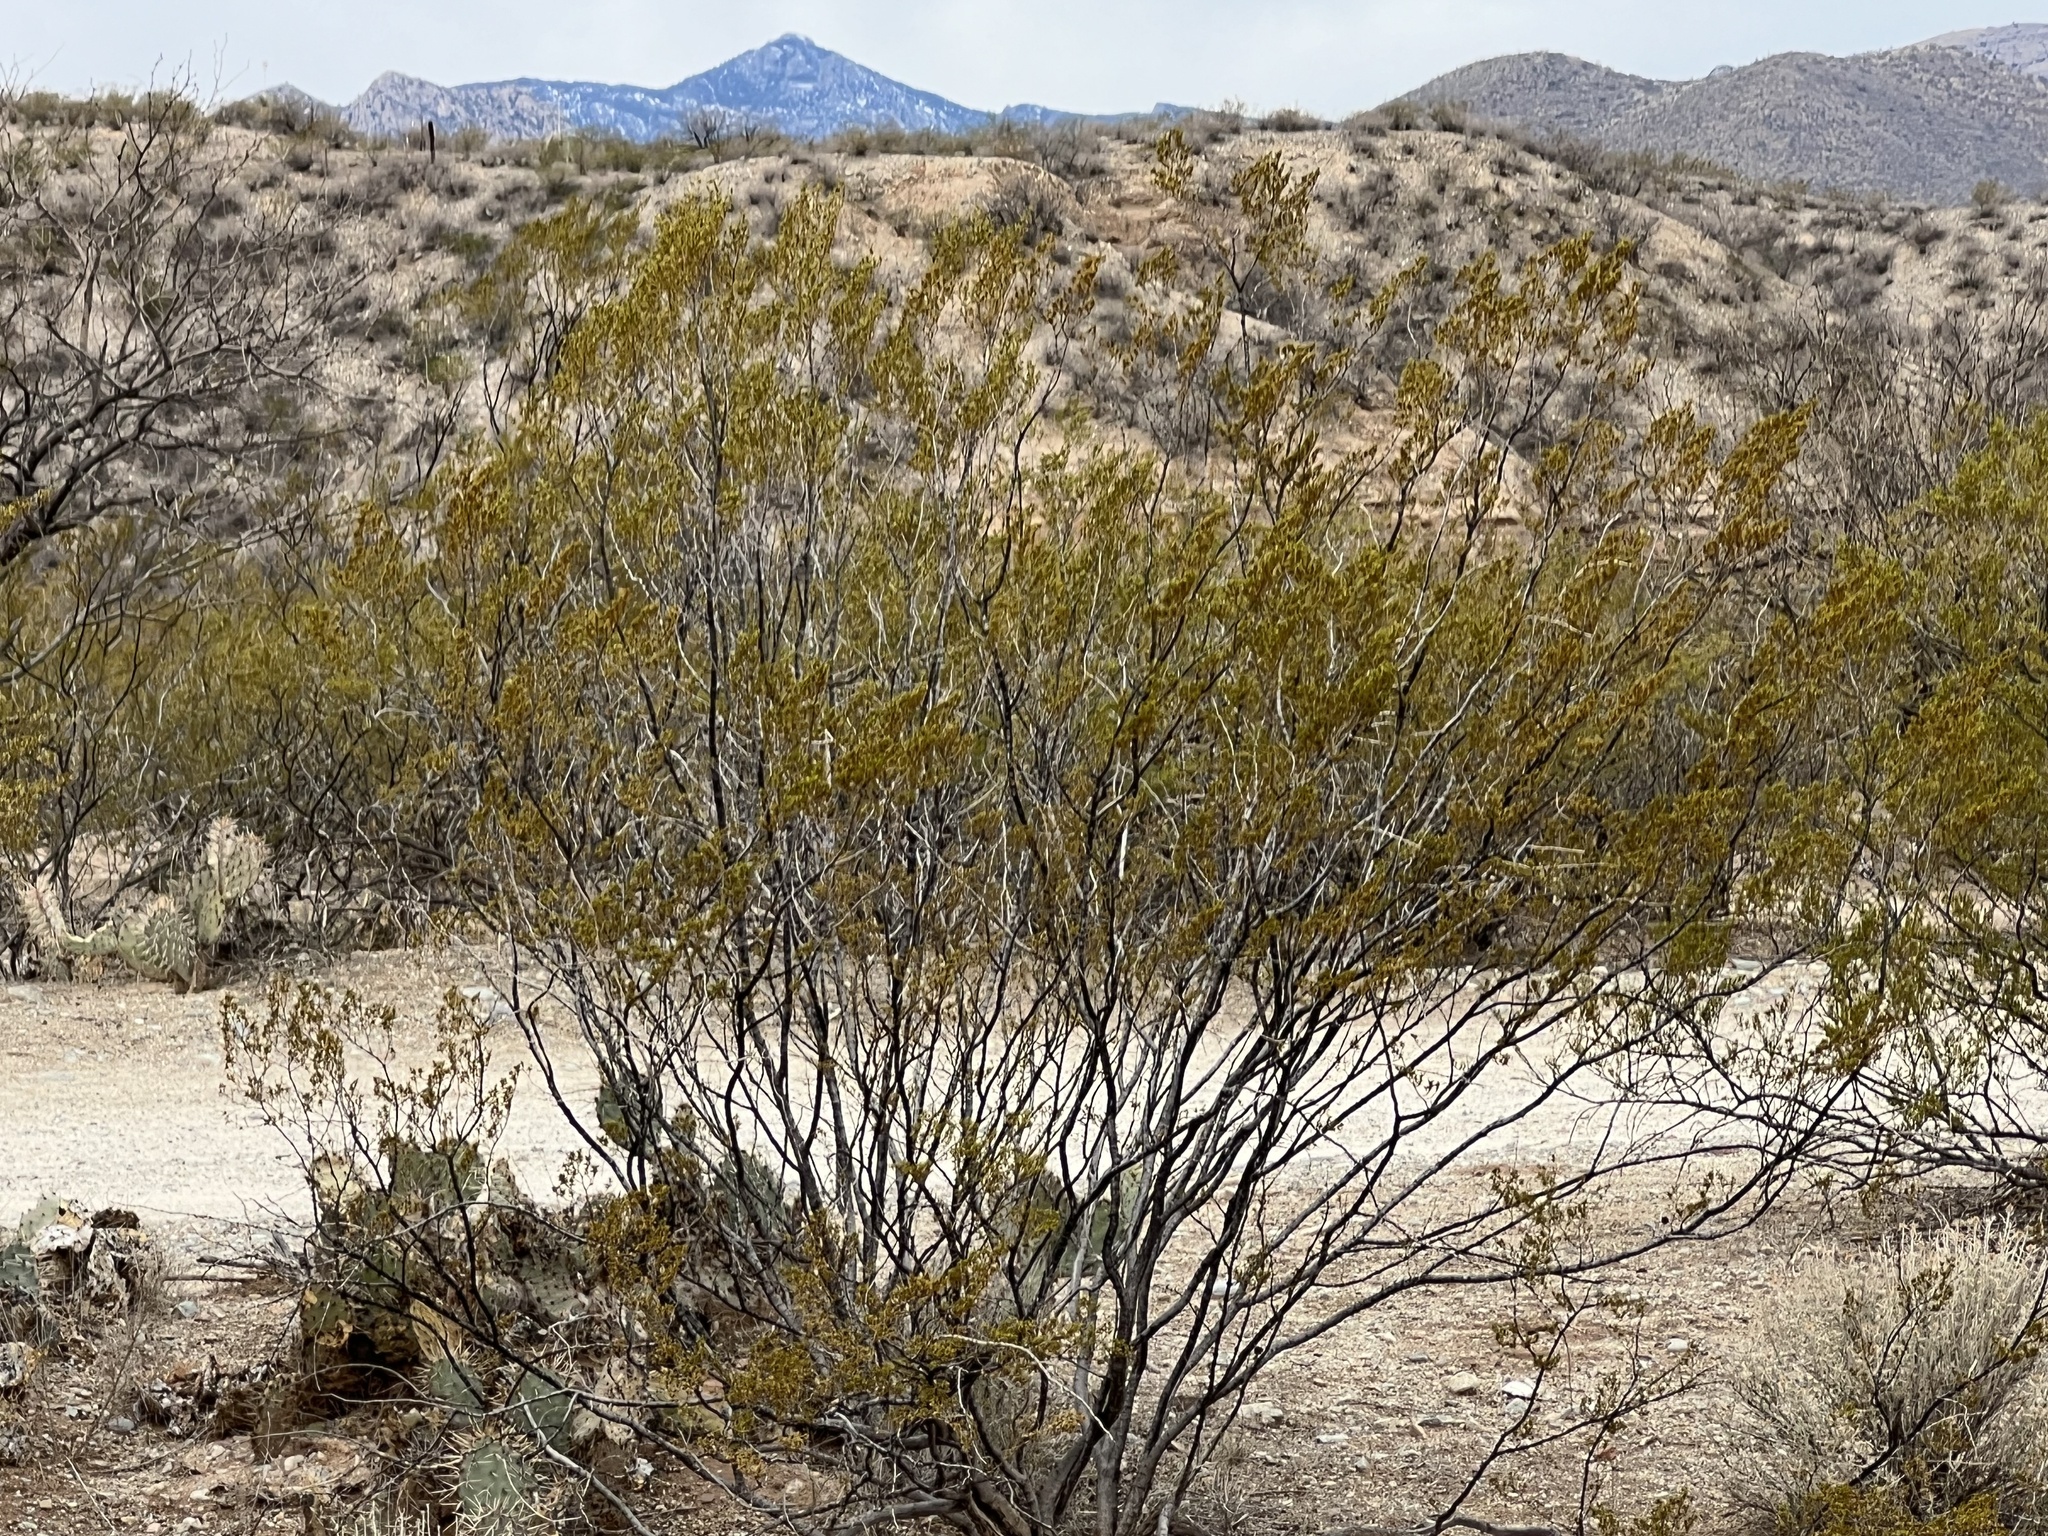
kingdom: Plantae
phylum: Tracheophyta
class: Magnoliopsida
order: Zygophyllales
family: Zygophyllaceae
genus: Larrea
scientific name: Larrea tridentata
